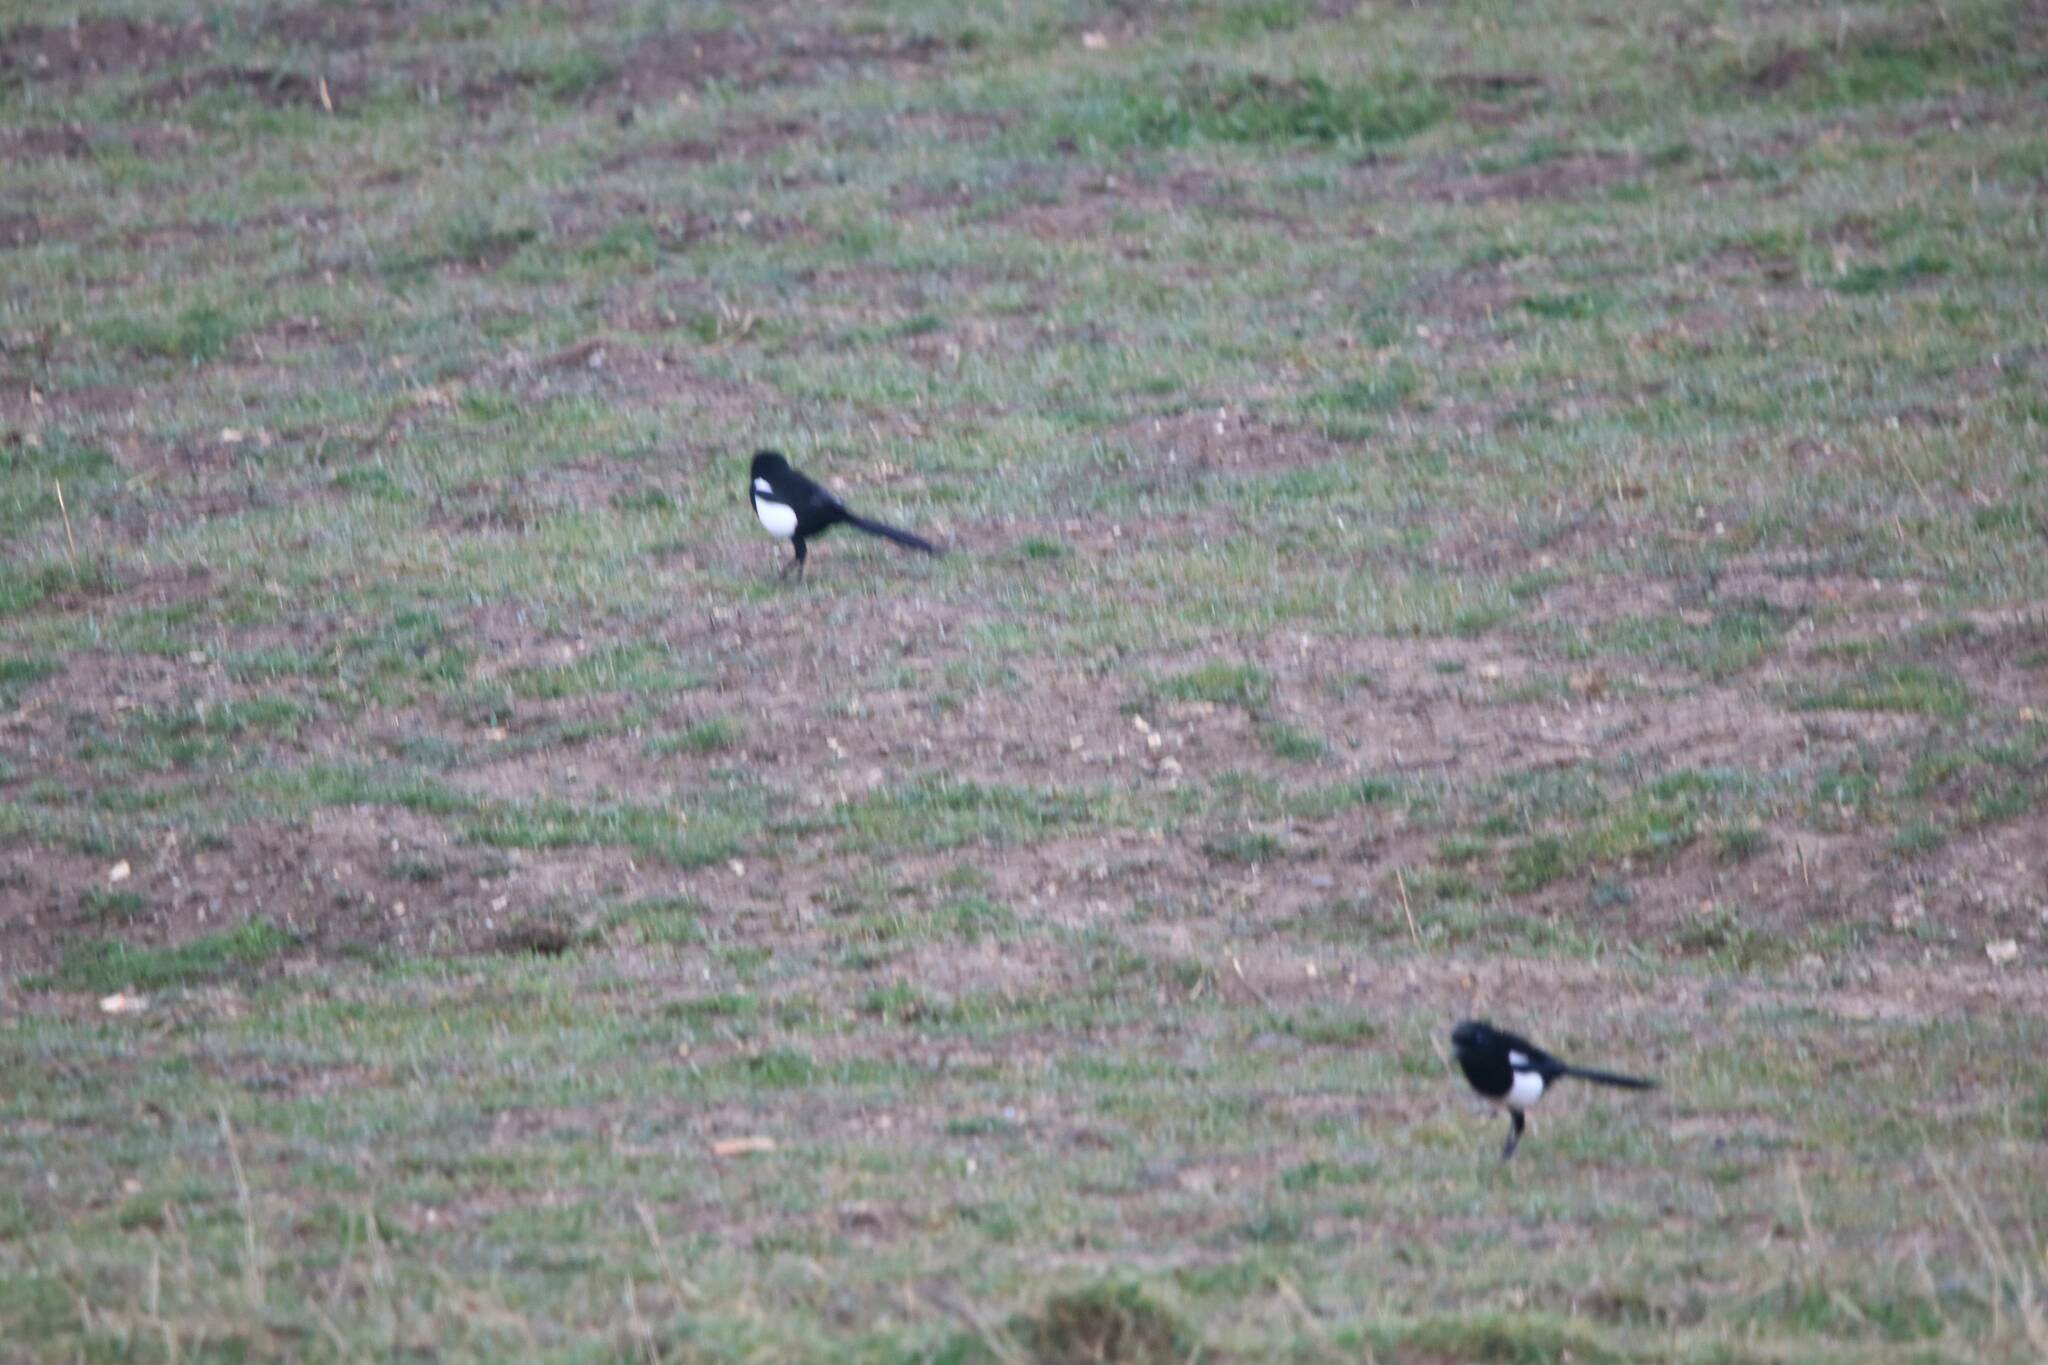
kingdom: Animalia
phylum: Chordata
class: Aves
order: Passeriformes
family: Corvidae
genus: Pica
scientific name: Pica mauritanica
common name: Maghreb magpie
